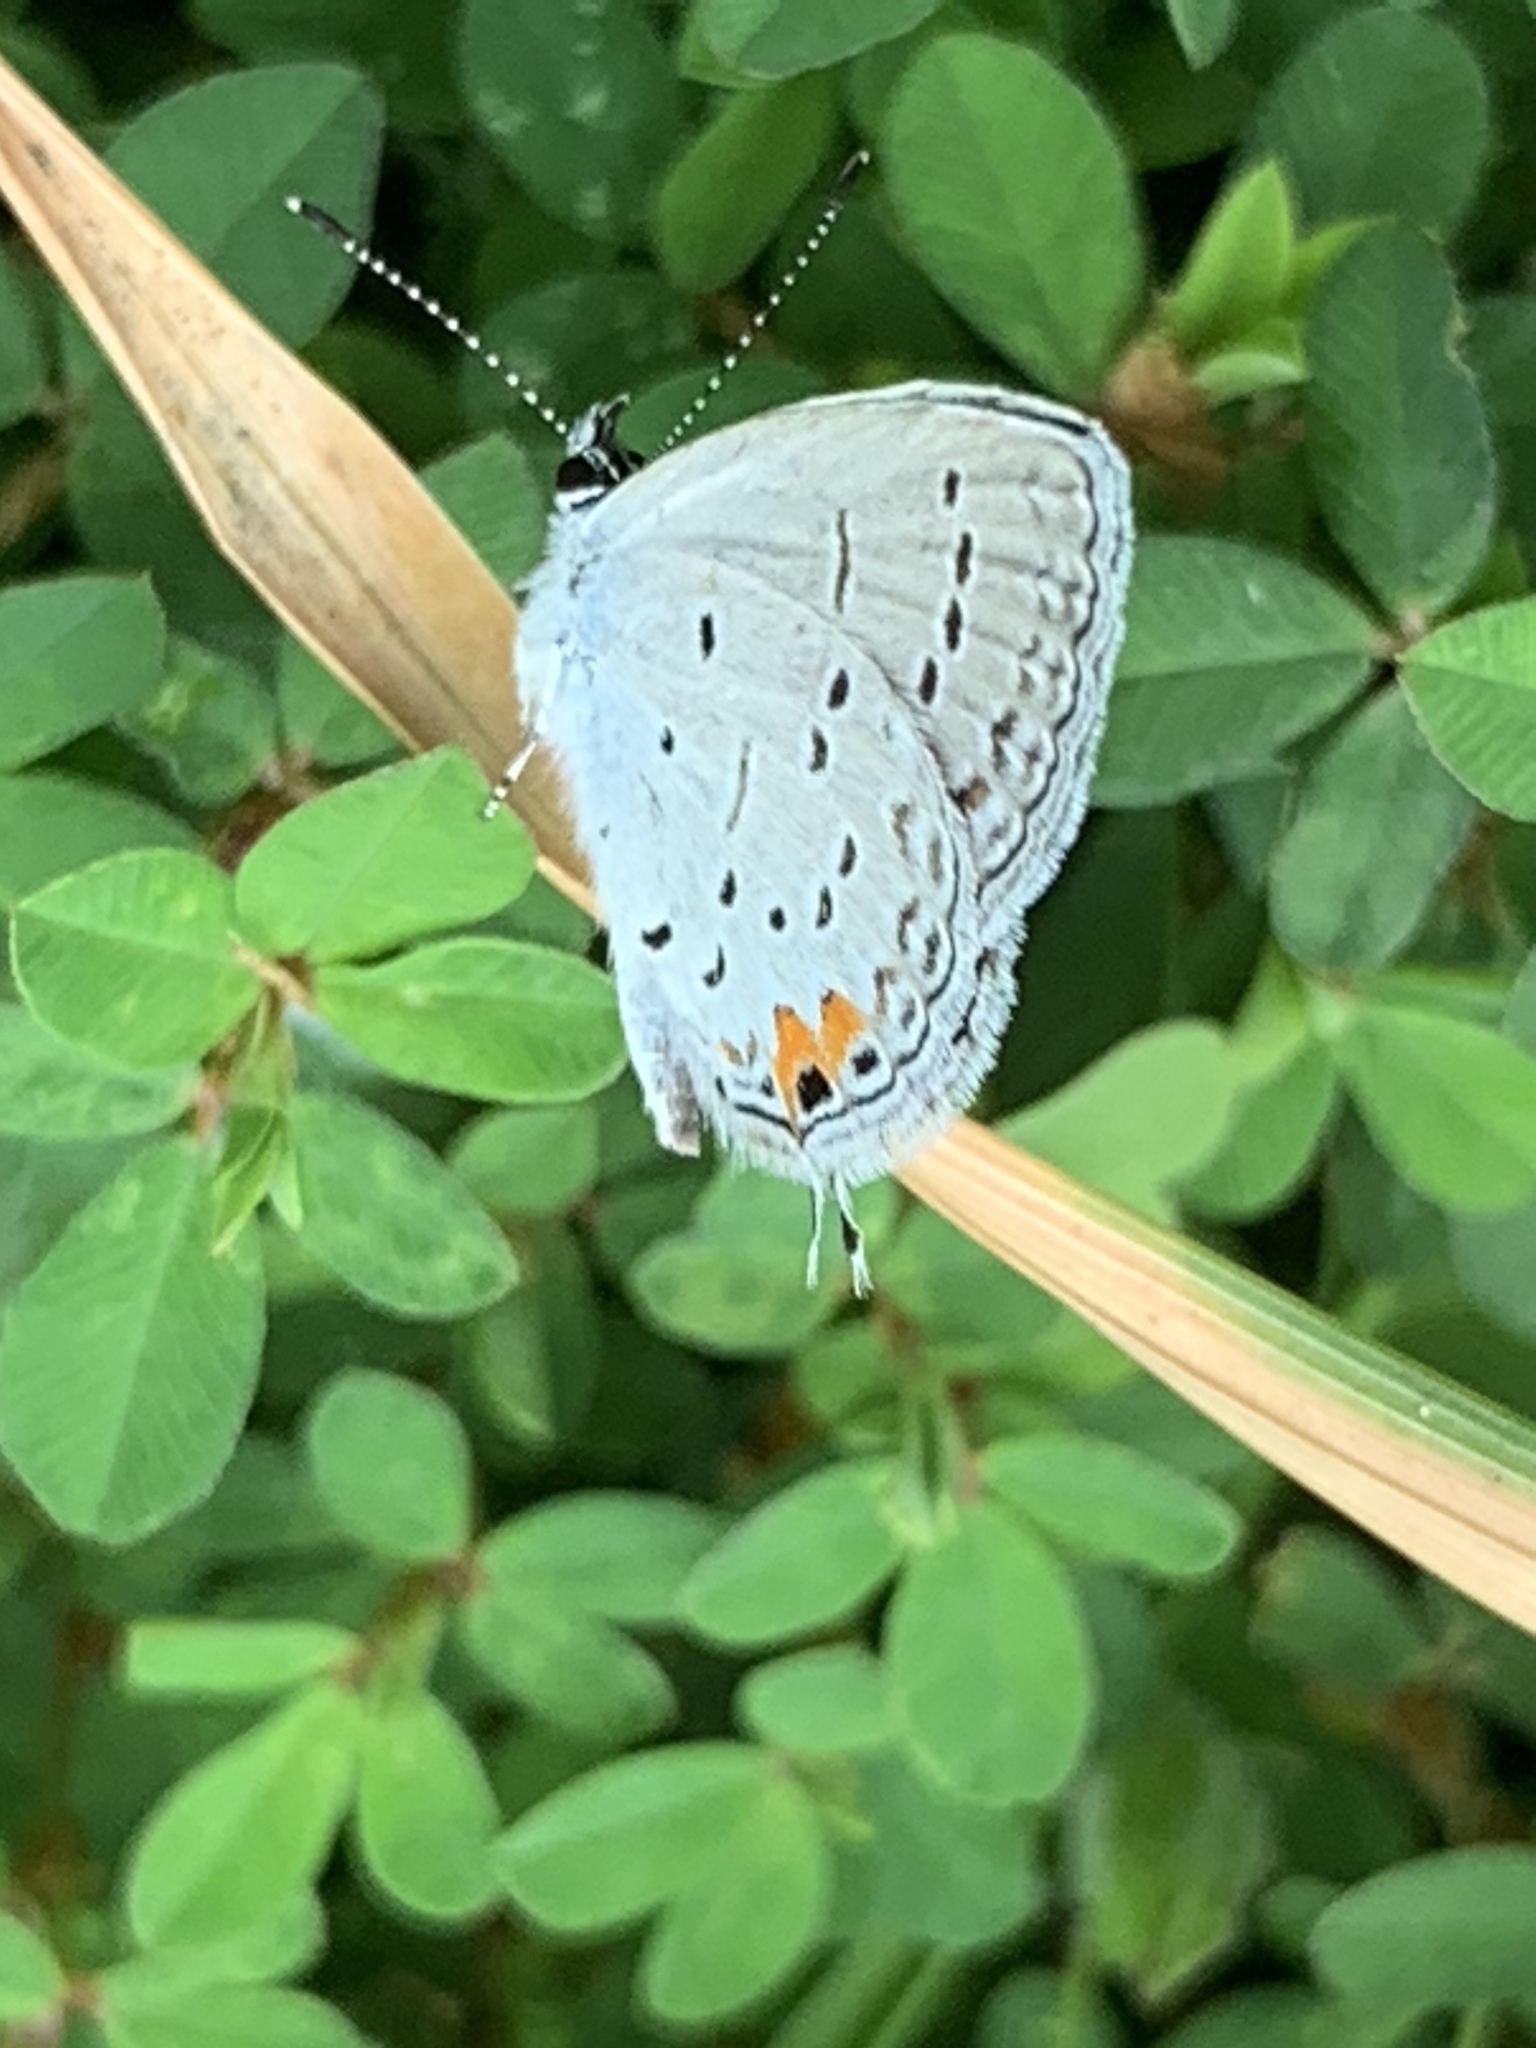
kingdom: Animalia
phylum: Arthropoda
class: Insecta
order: Lepidoptera
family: Lycaenidae
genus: Elkalyce
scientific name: Elkalyce comyntas
